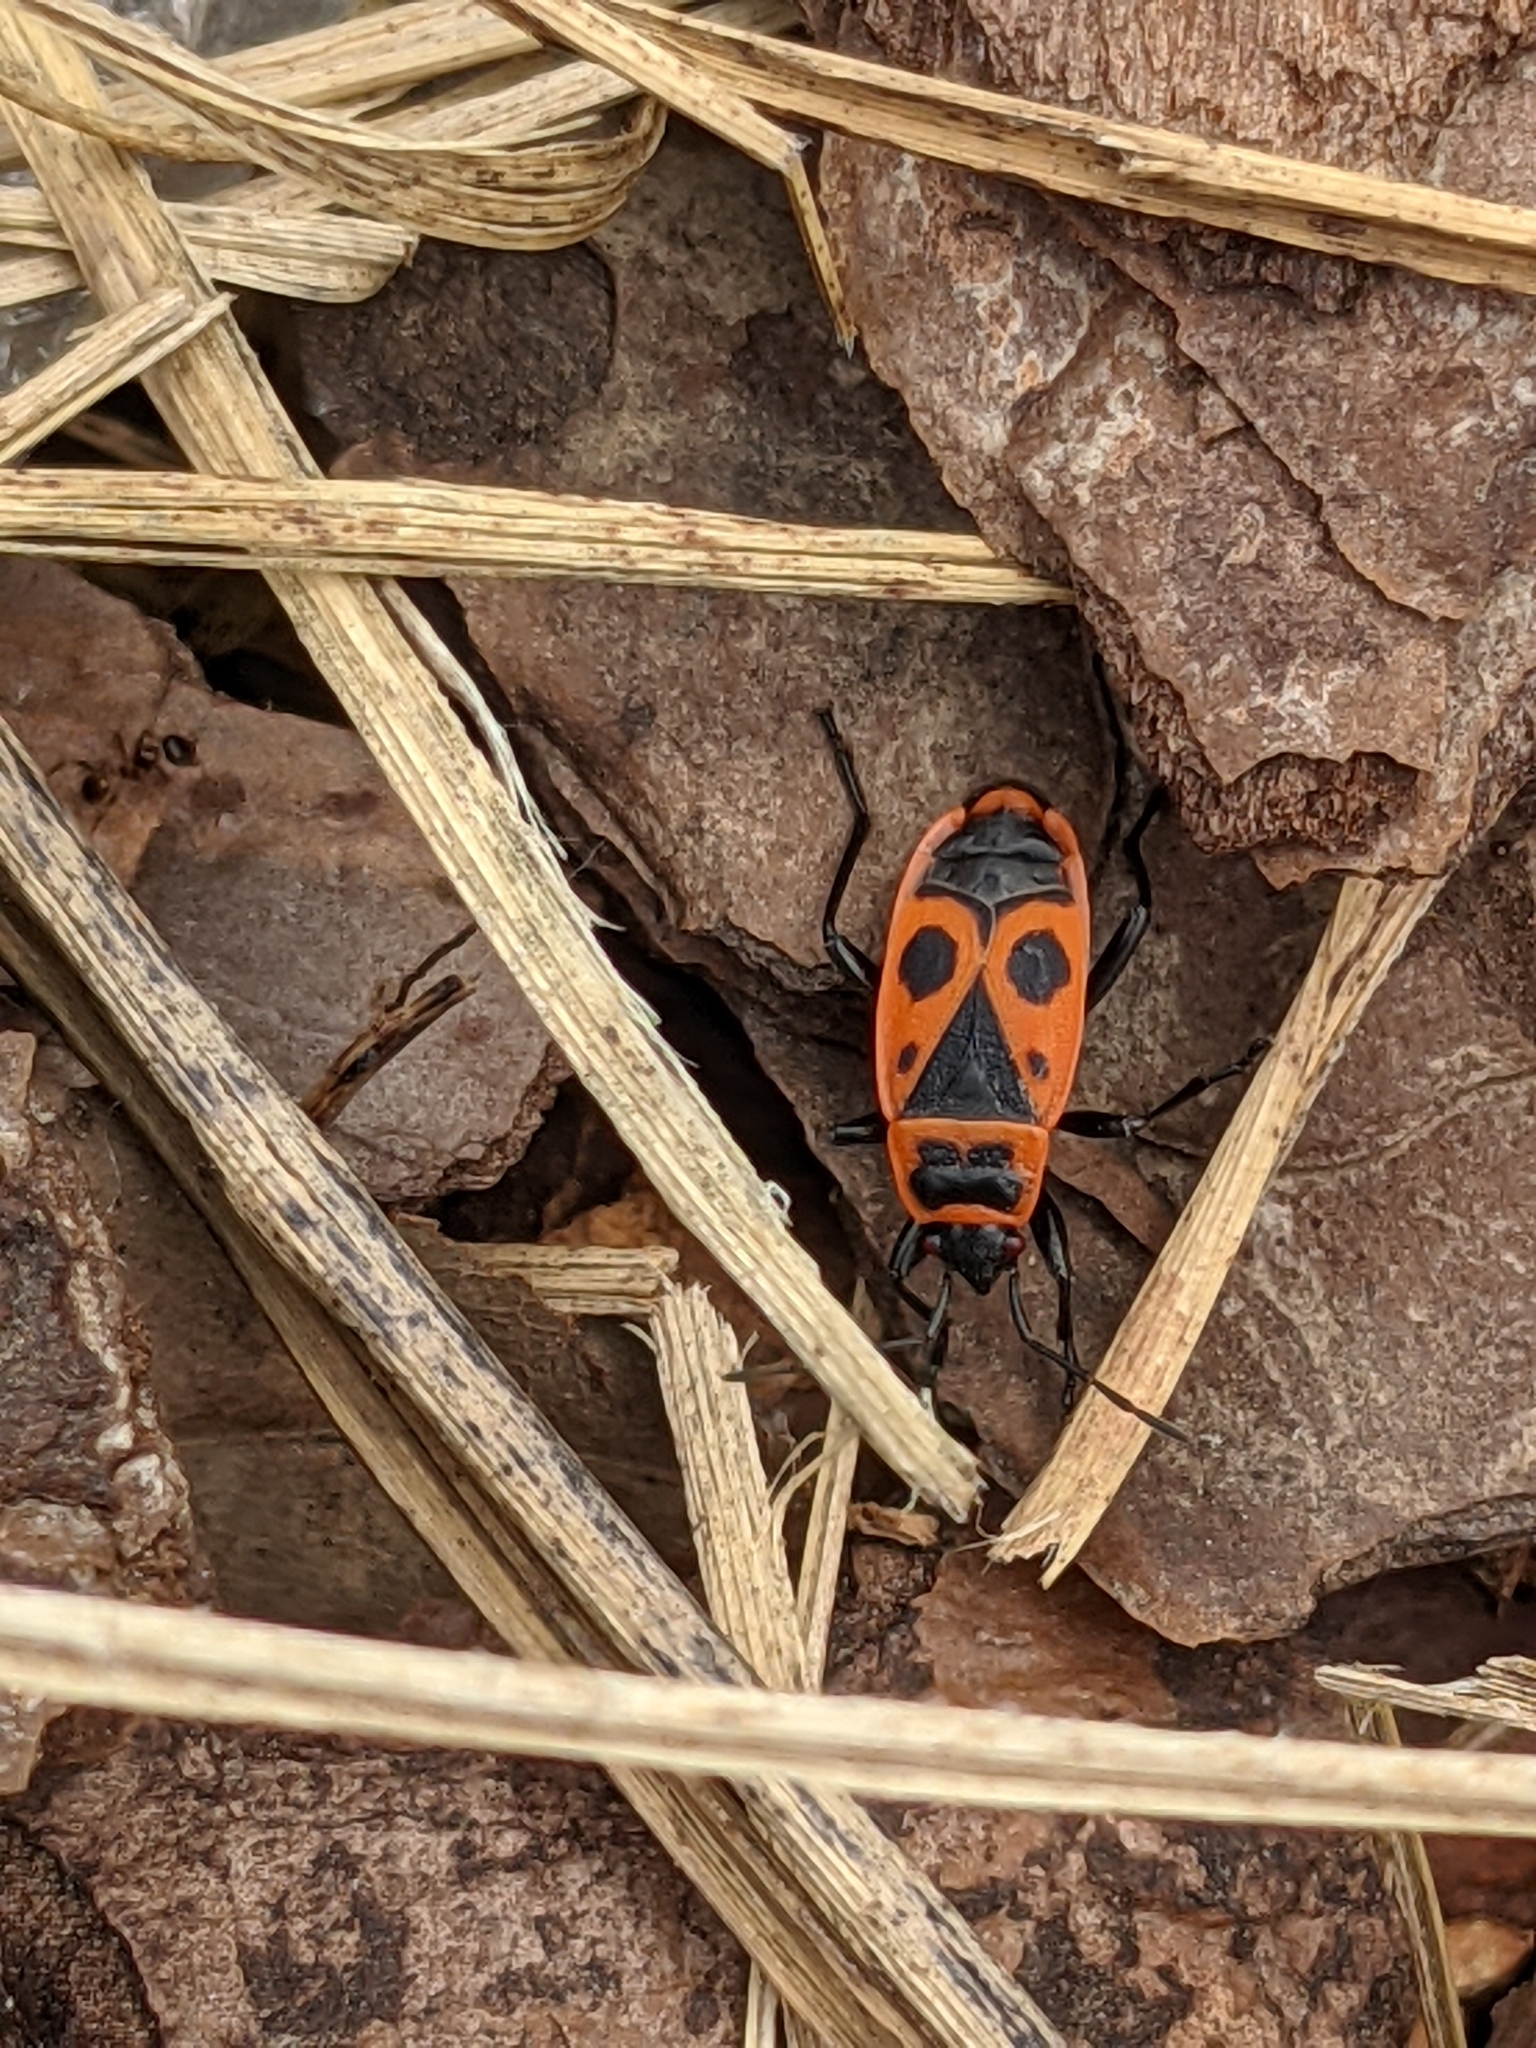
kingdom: Animalia
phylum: Arthropoda
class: Insecta
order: Hemiptera
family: Pyrrhocoridae
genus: Pyrrhocoris
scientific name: Pyrrhocoris apterus
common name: Firebug
